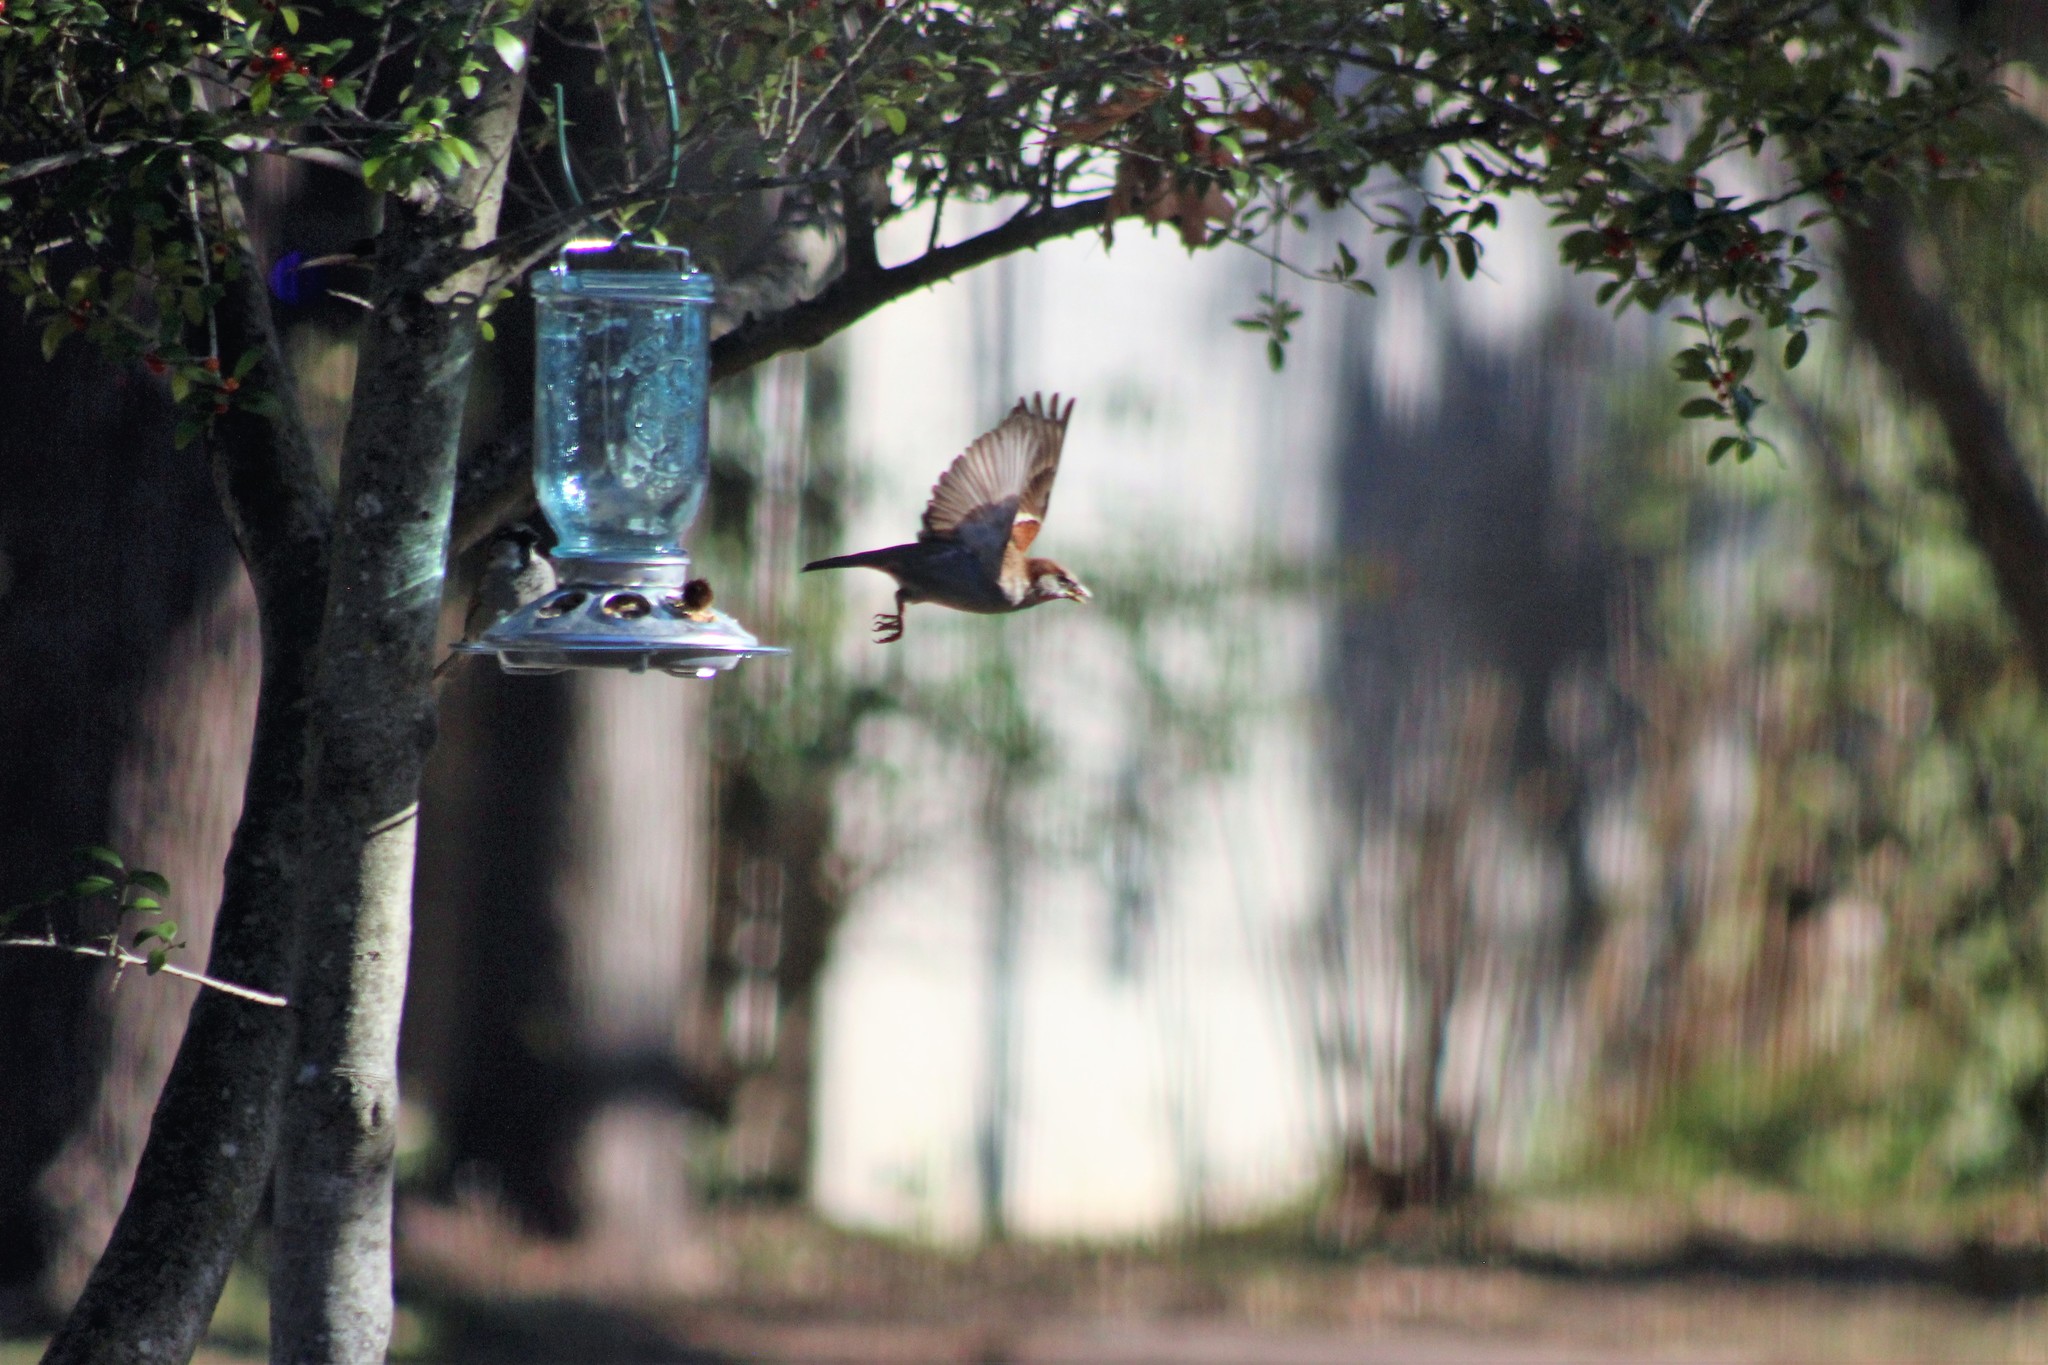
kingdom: Animalia
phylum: Chordata
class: Aves
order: Passeriformes
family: Passeridae
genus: Passer
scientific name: Passer domesticus
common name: House sparrow
